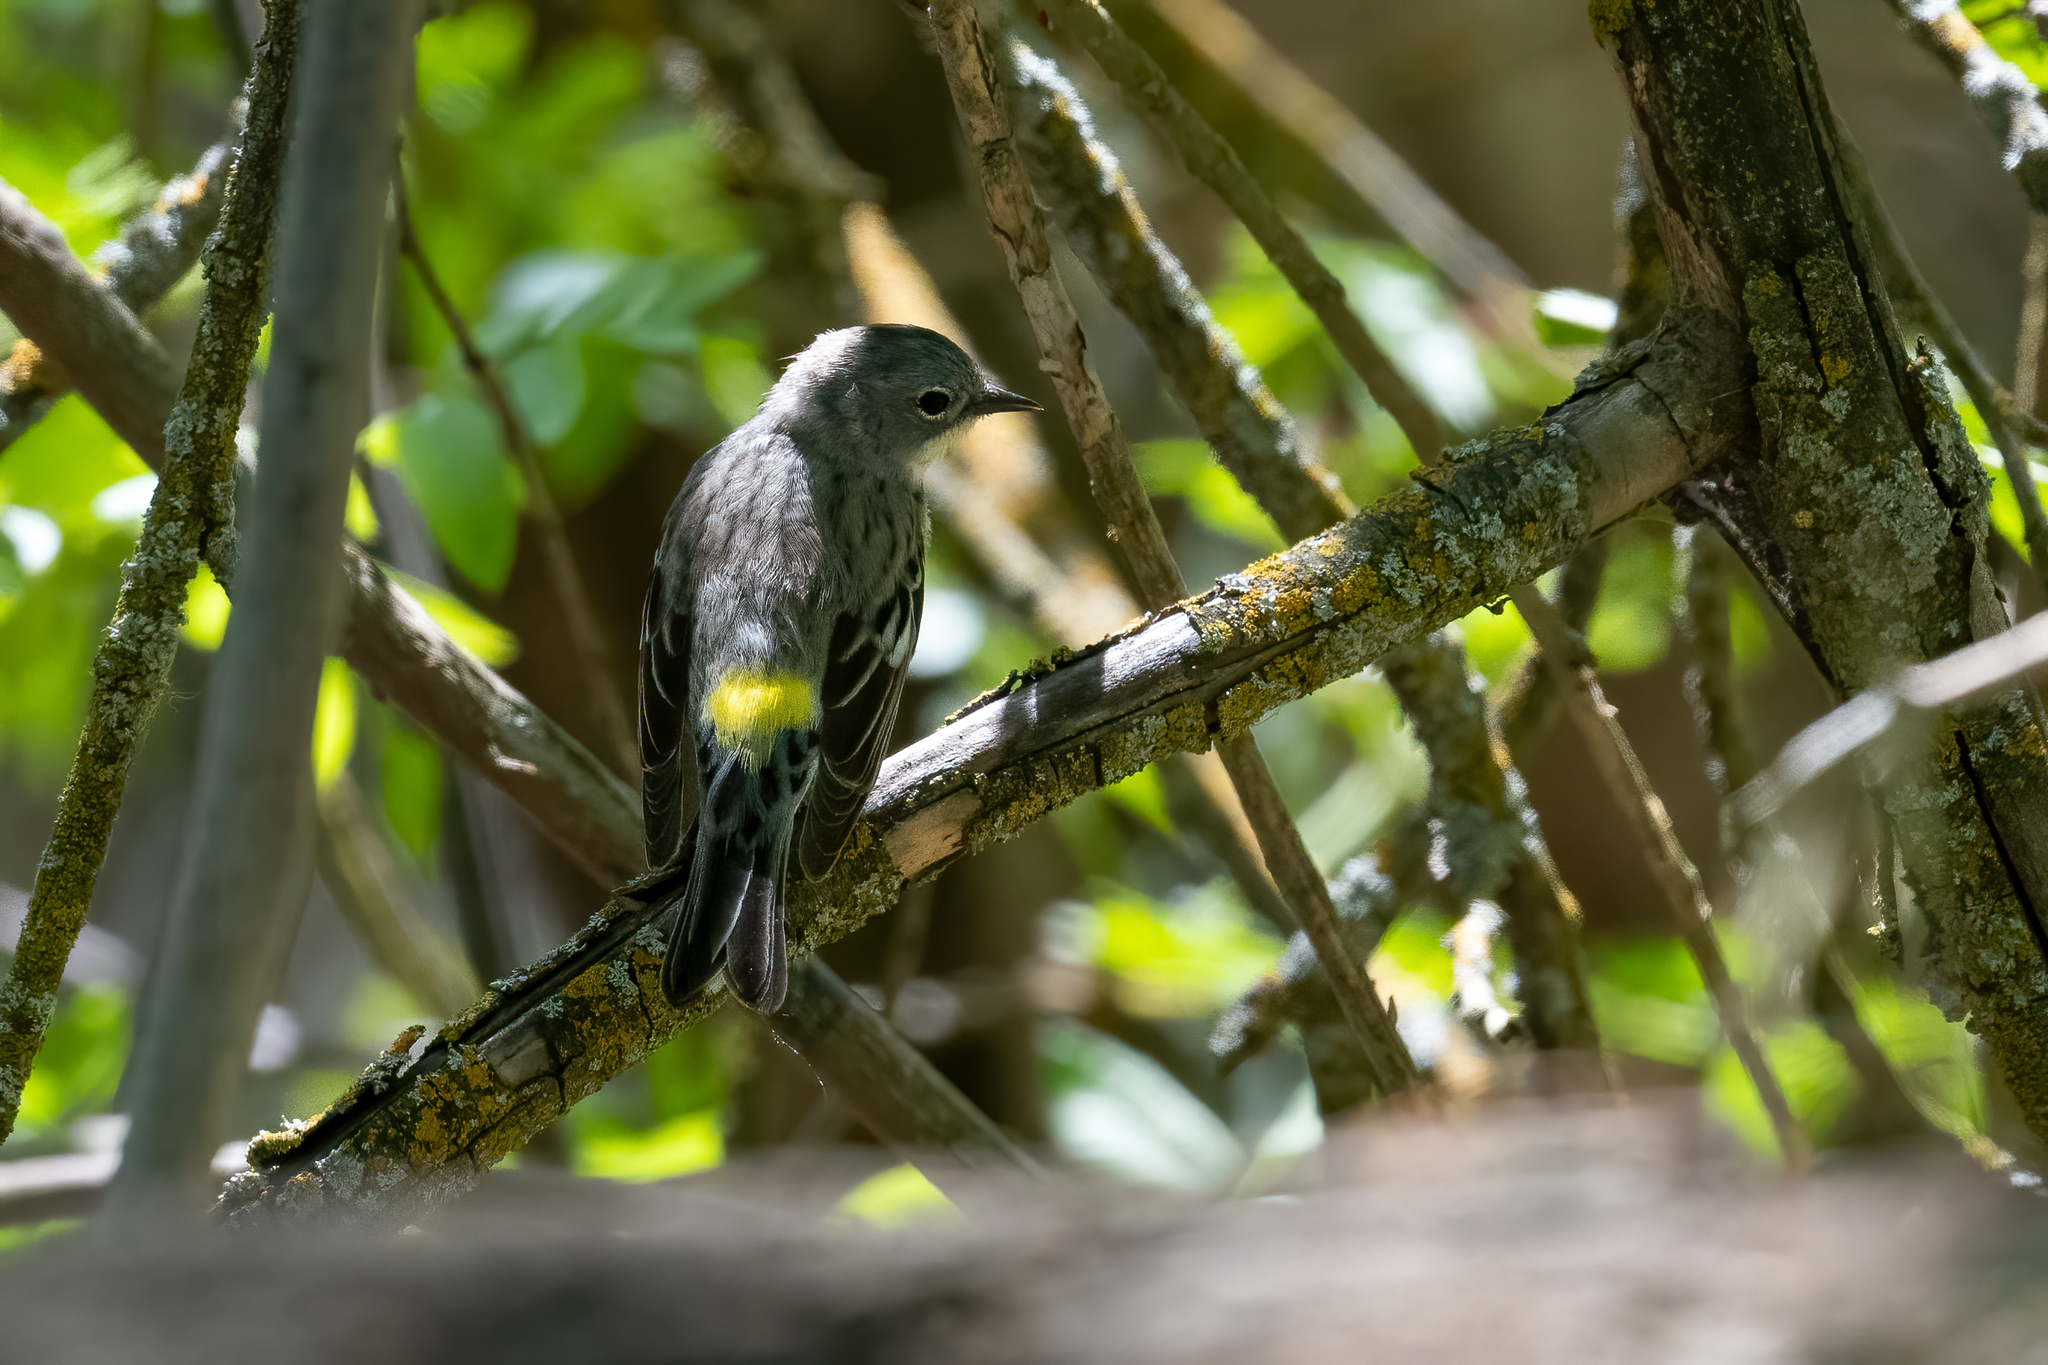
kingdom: Animalia
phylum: Chordata
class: Aves
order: Passeriformes
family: Parulidae
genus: Setophaga
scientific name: Setophaga coronata
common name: Myrtle warbler
